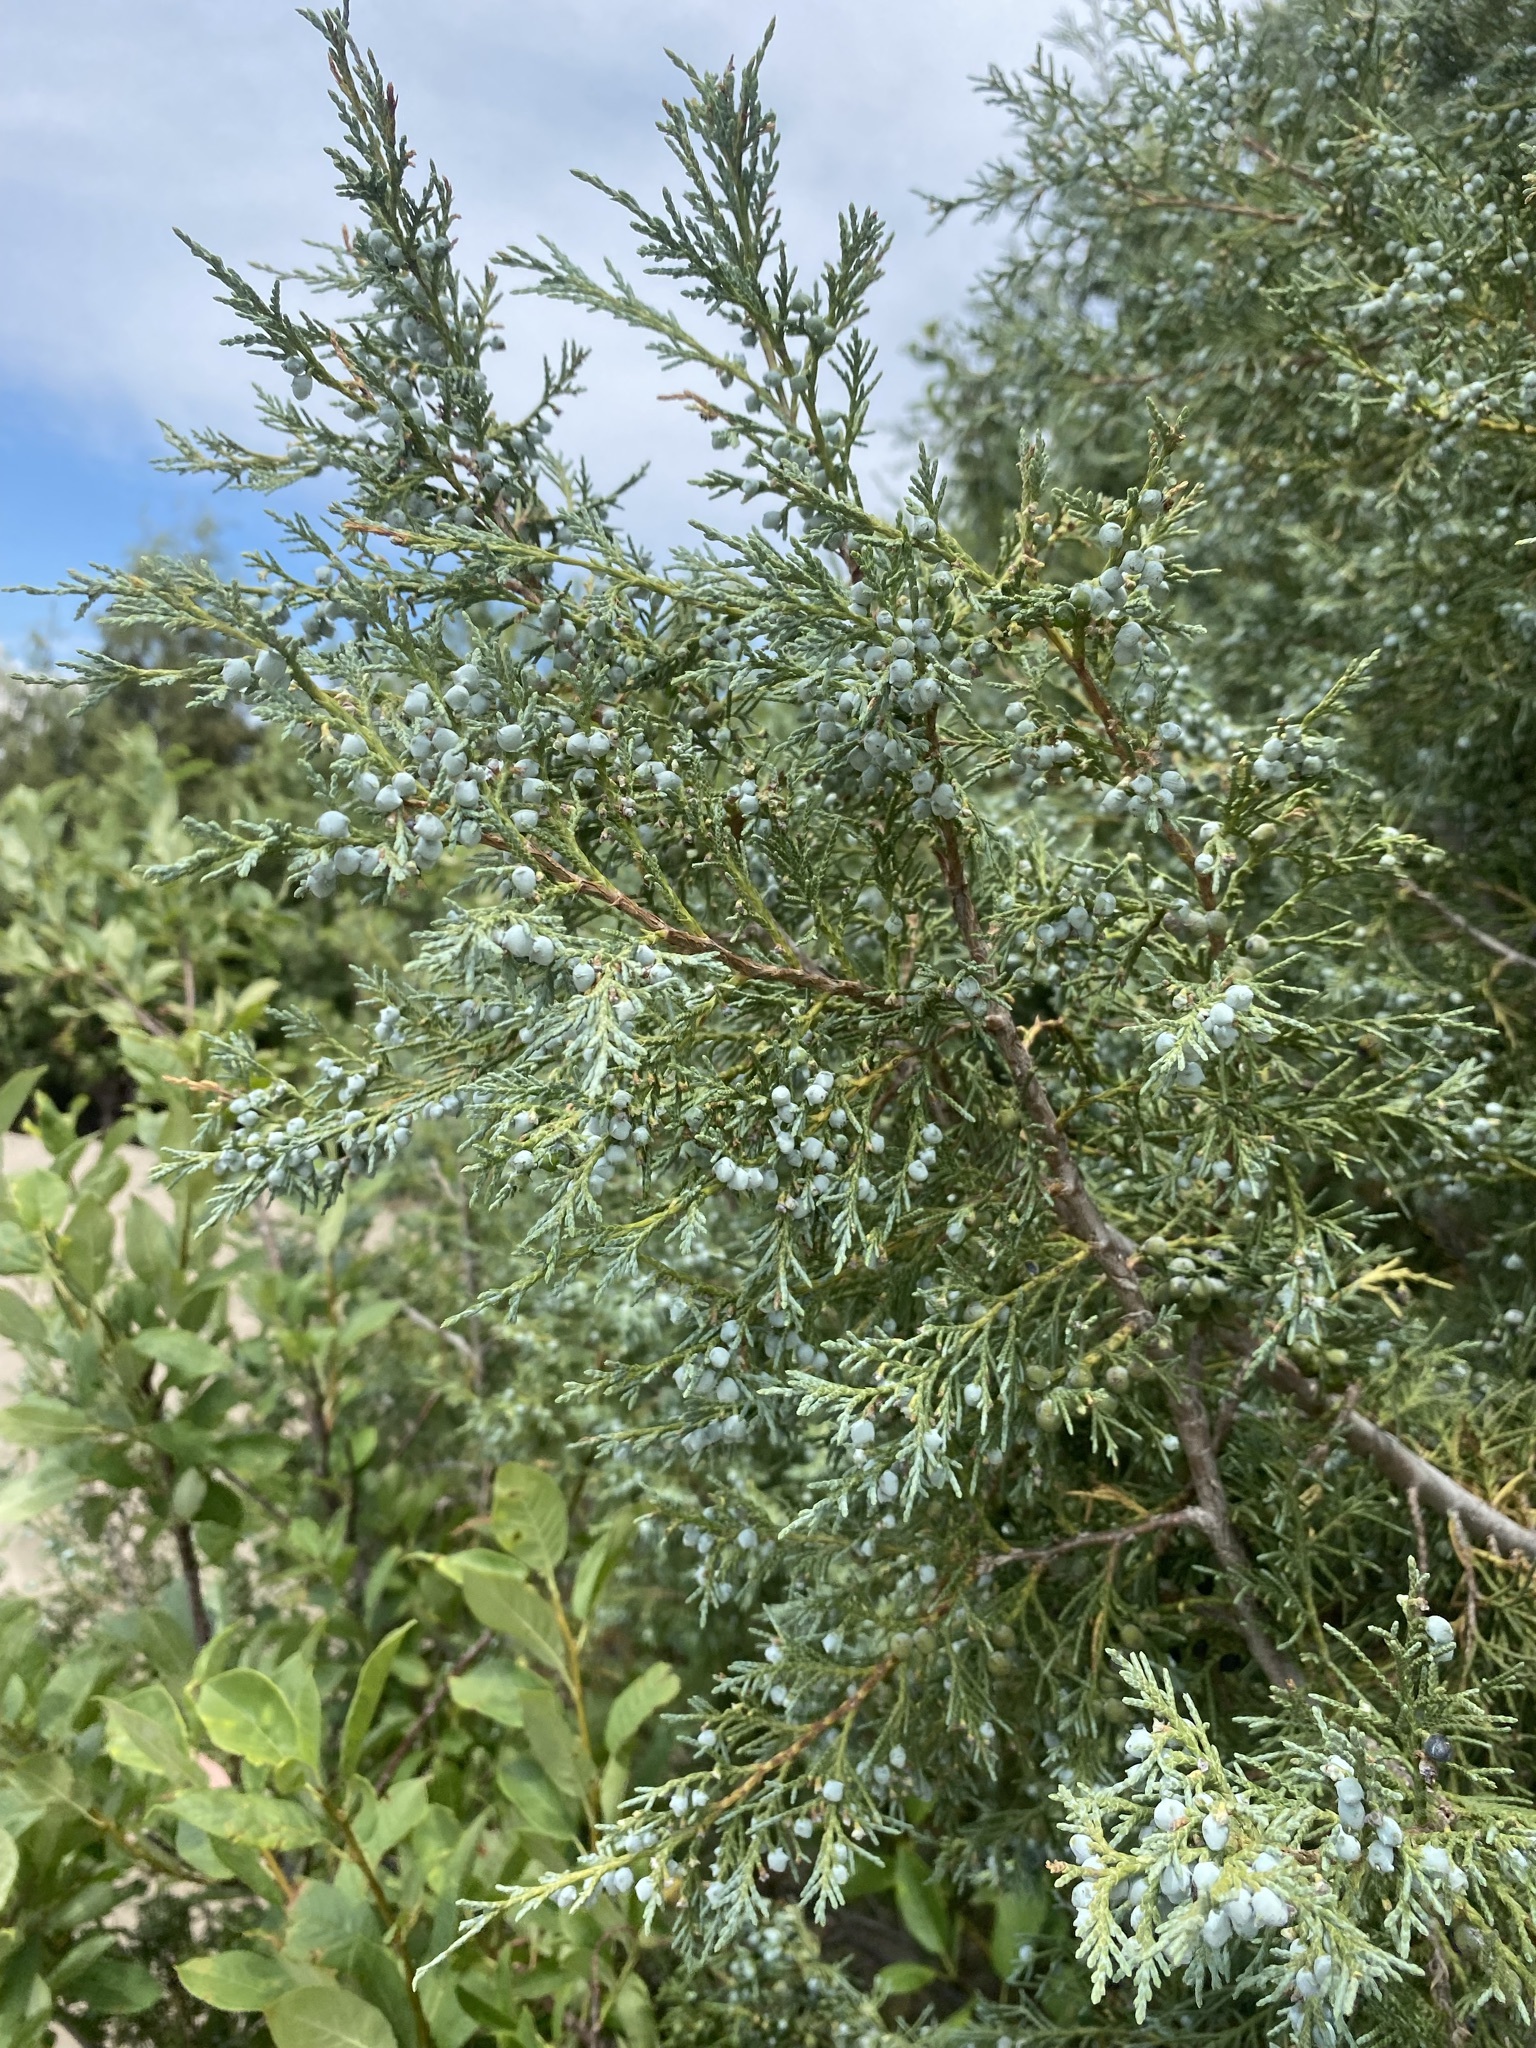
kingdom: Plantae
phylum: Tracheophyta
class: Pinopsida
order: Pinales
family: Cupressaceae
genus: Juniperus
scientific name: Juniperus scopulorum
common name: Rocky mountain juniper
